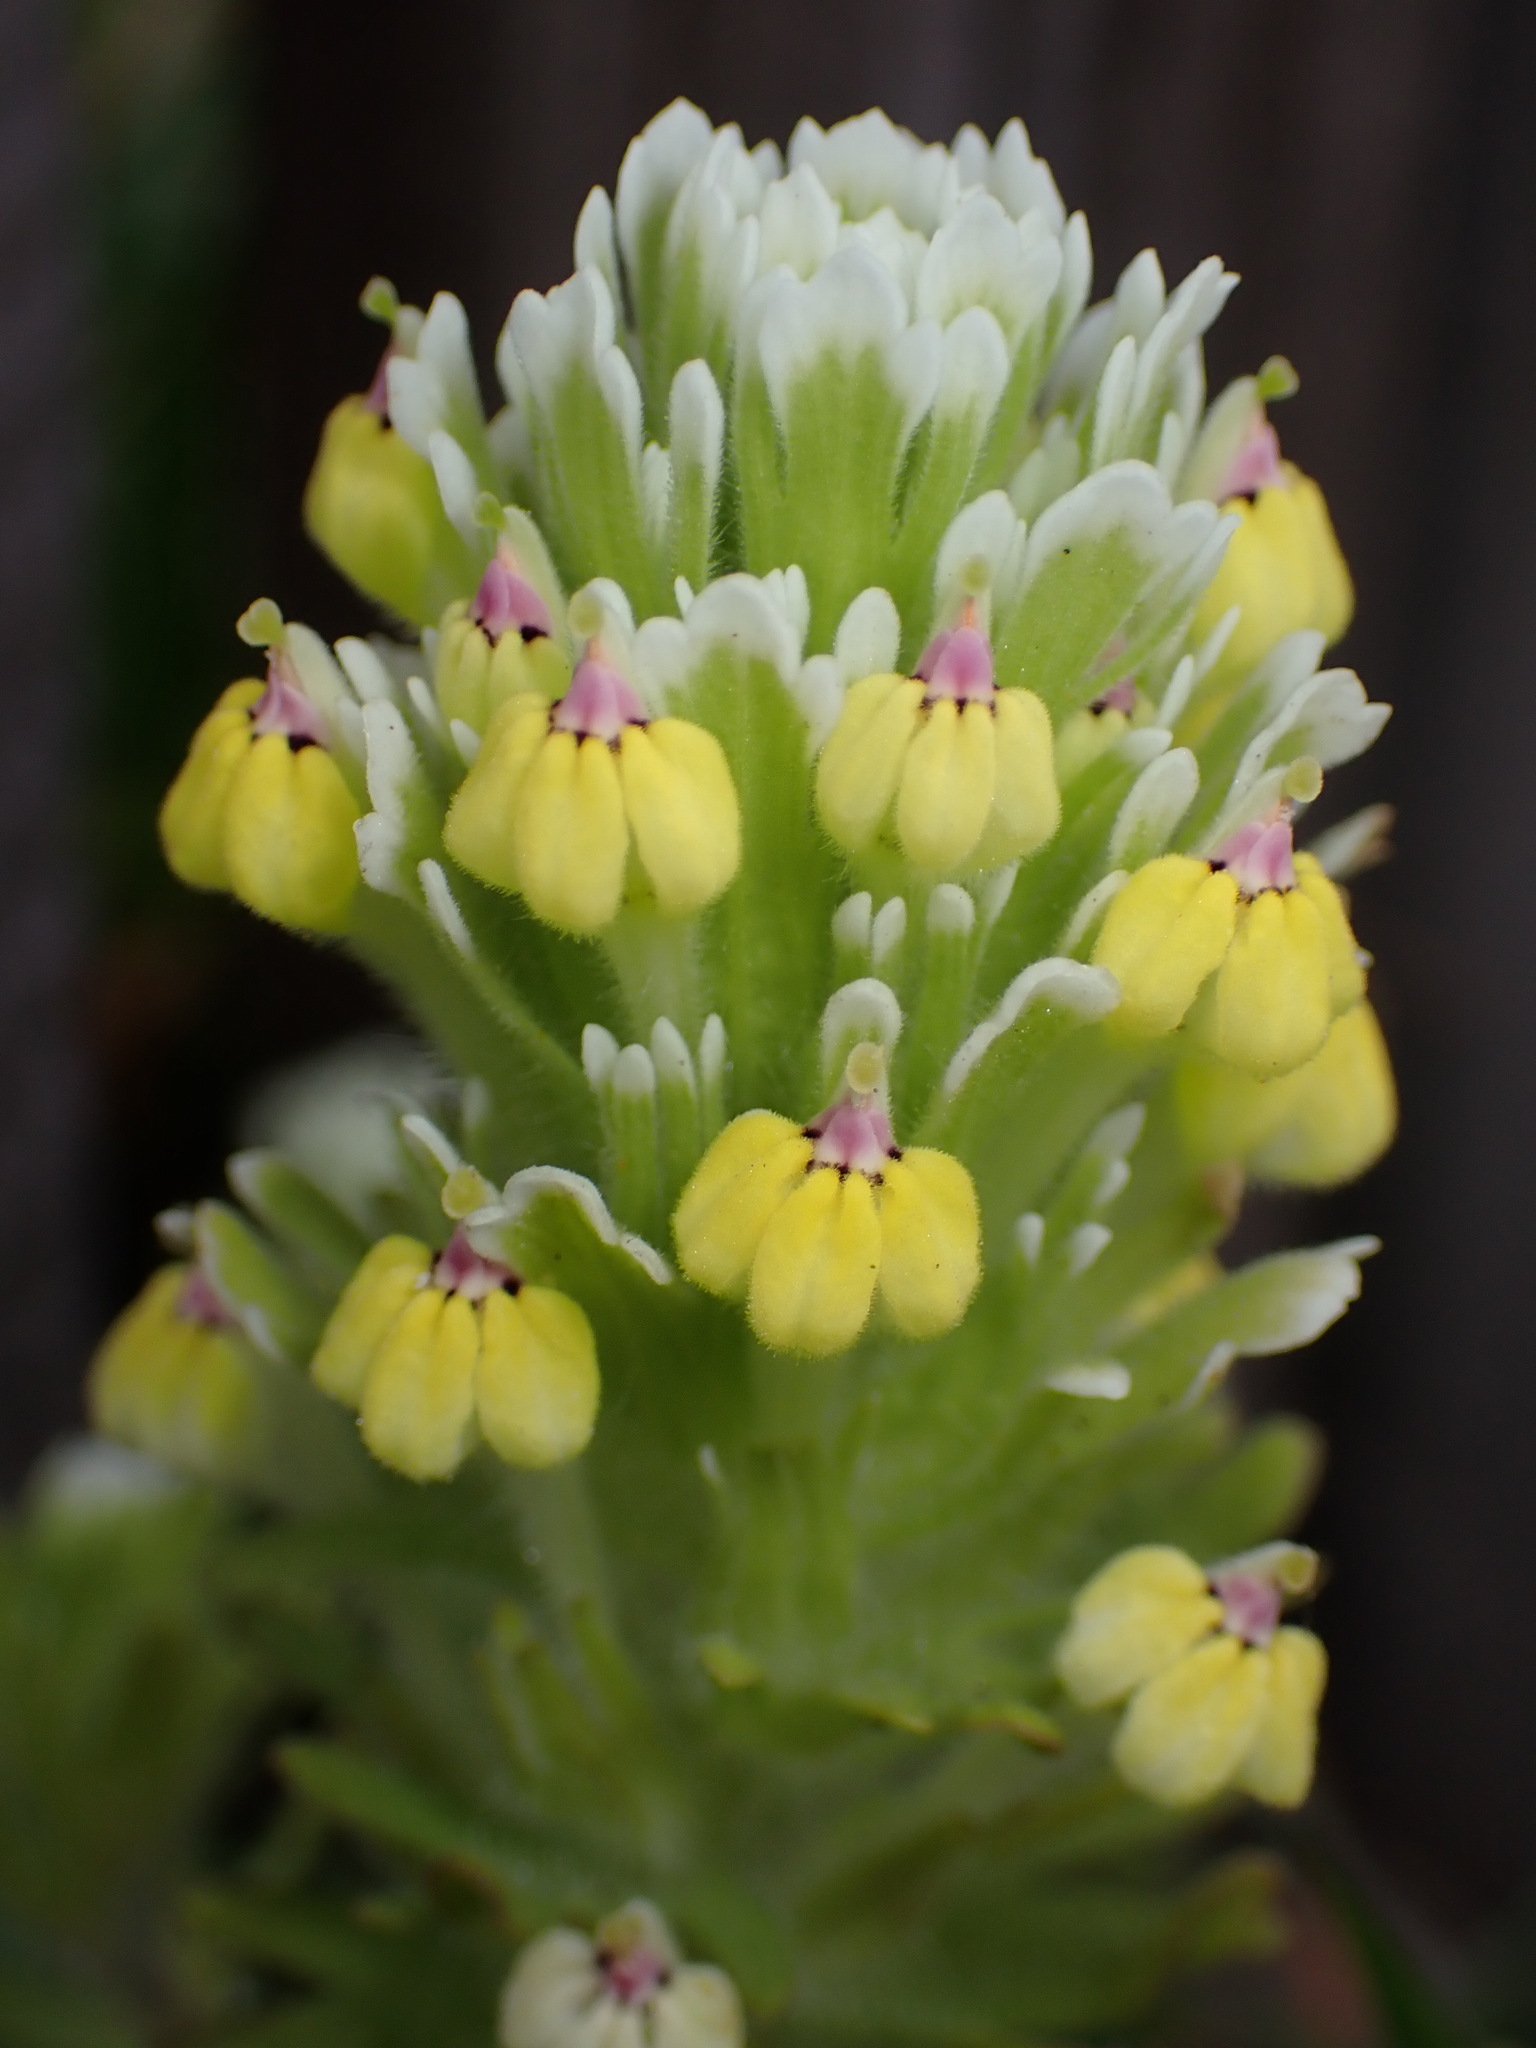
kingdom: Plantae
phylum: Tracheophyta
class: Magnoliopsida
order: Lamiales
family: Orobanchaceae
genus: Castilleja
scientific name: Castilleja ambigua
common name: Johnny-nip
